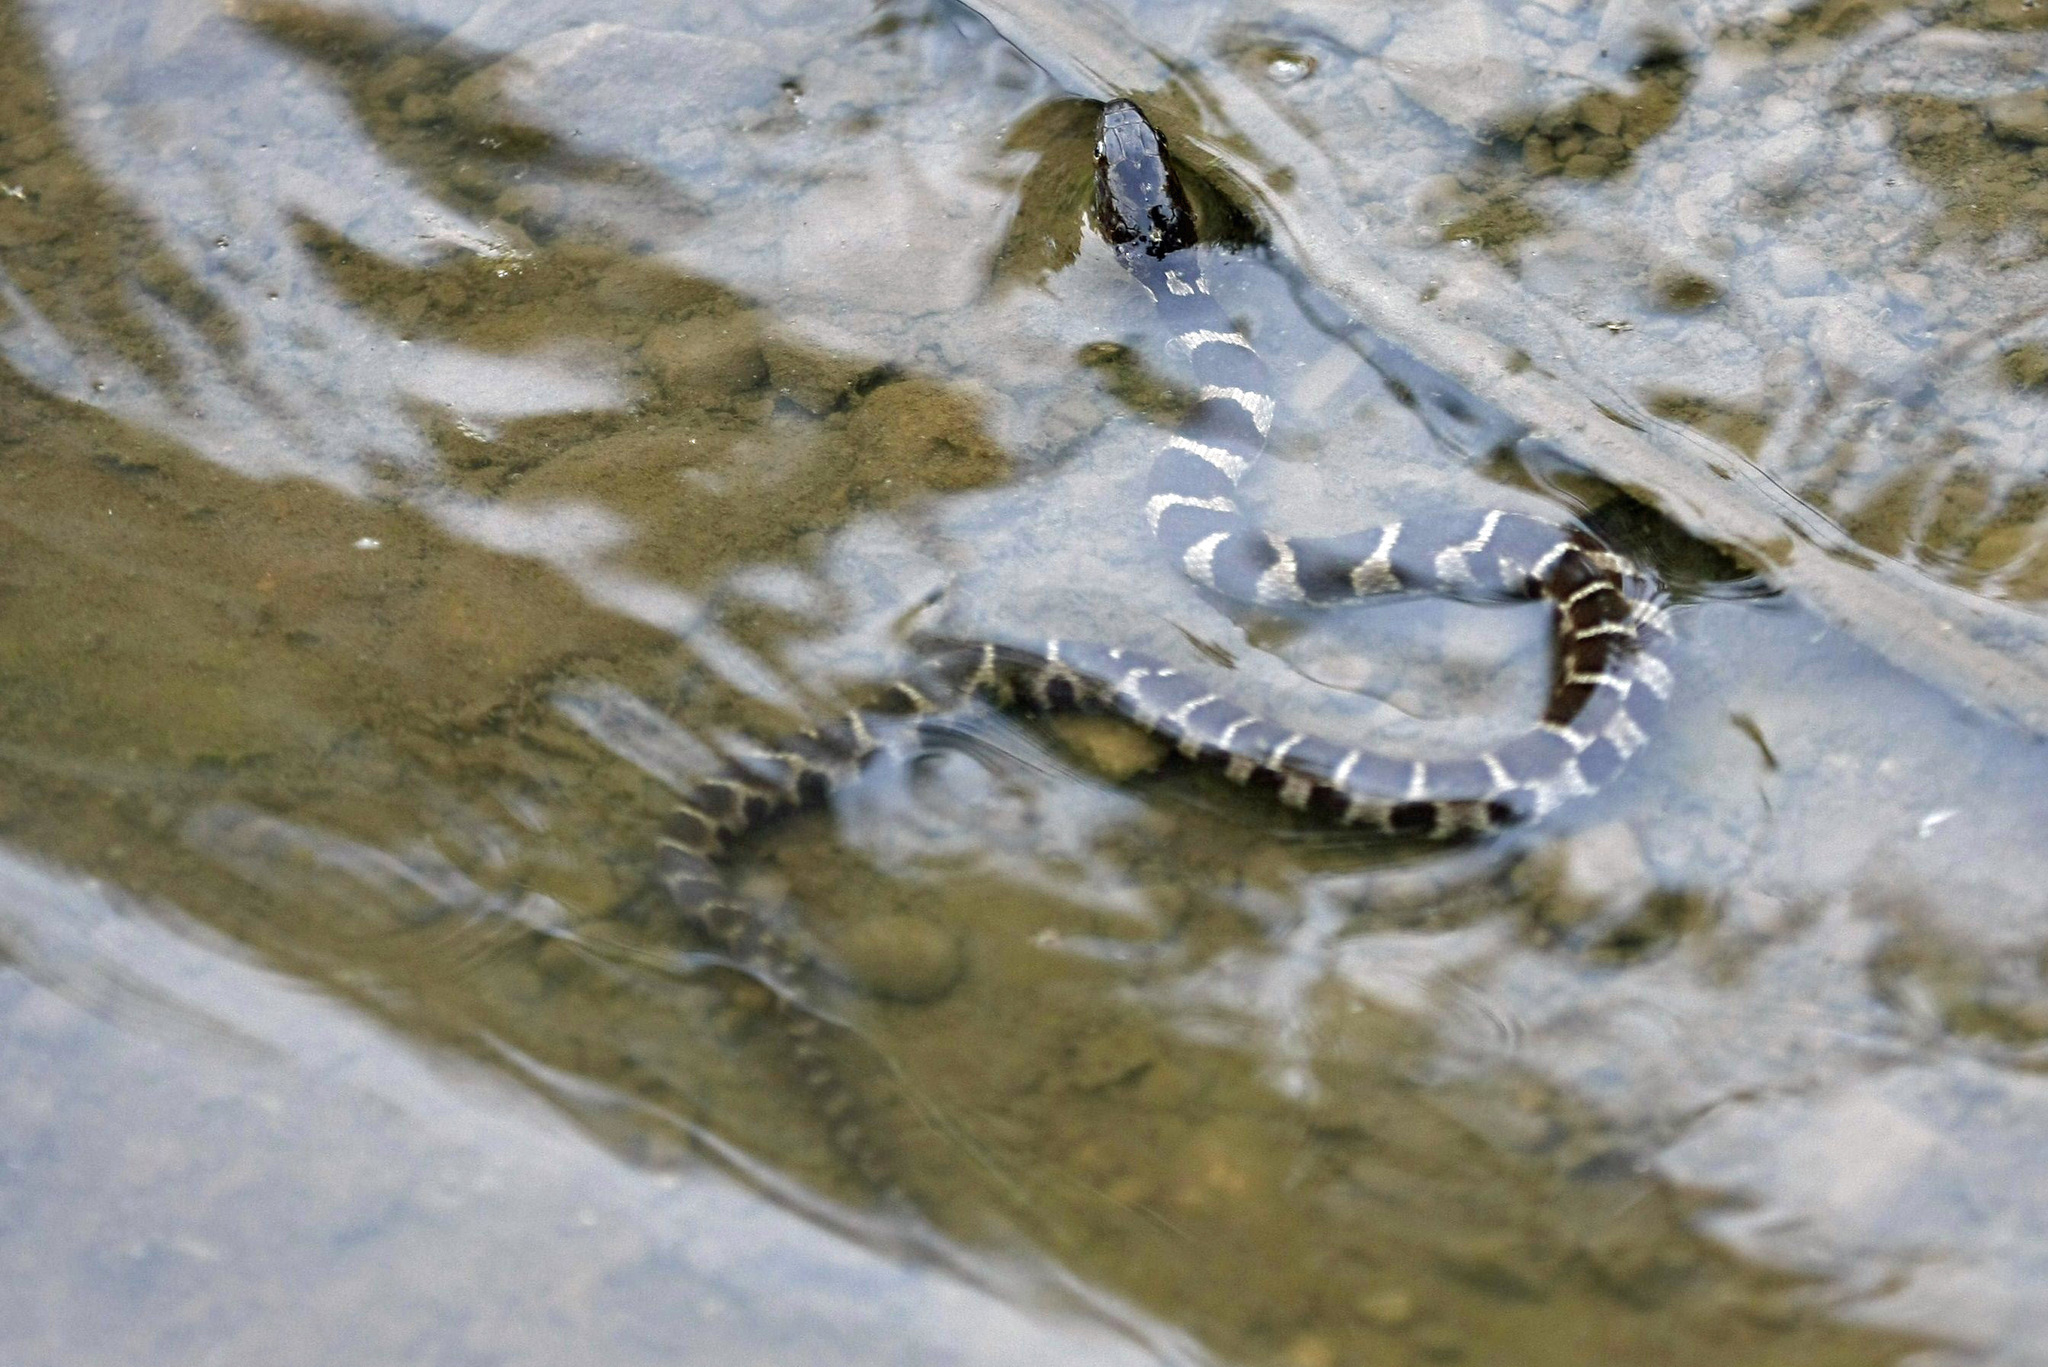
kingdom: Animalia
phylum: Chordata
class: Squamata
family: Colubridae
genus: Nerodia
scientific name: Nerodia sipedon
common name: Northern water snake
